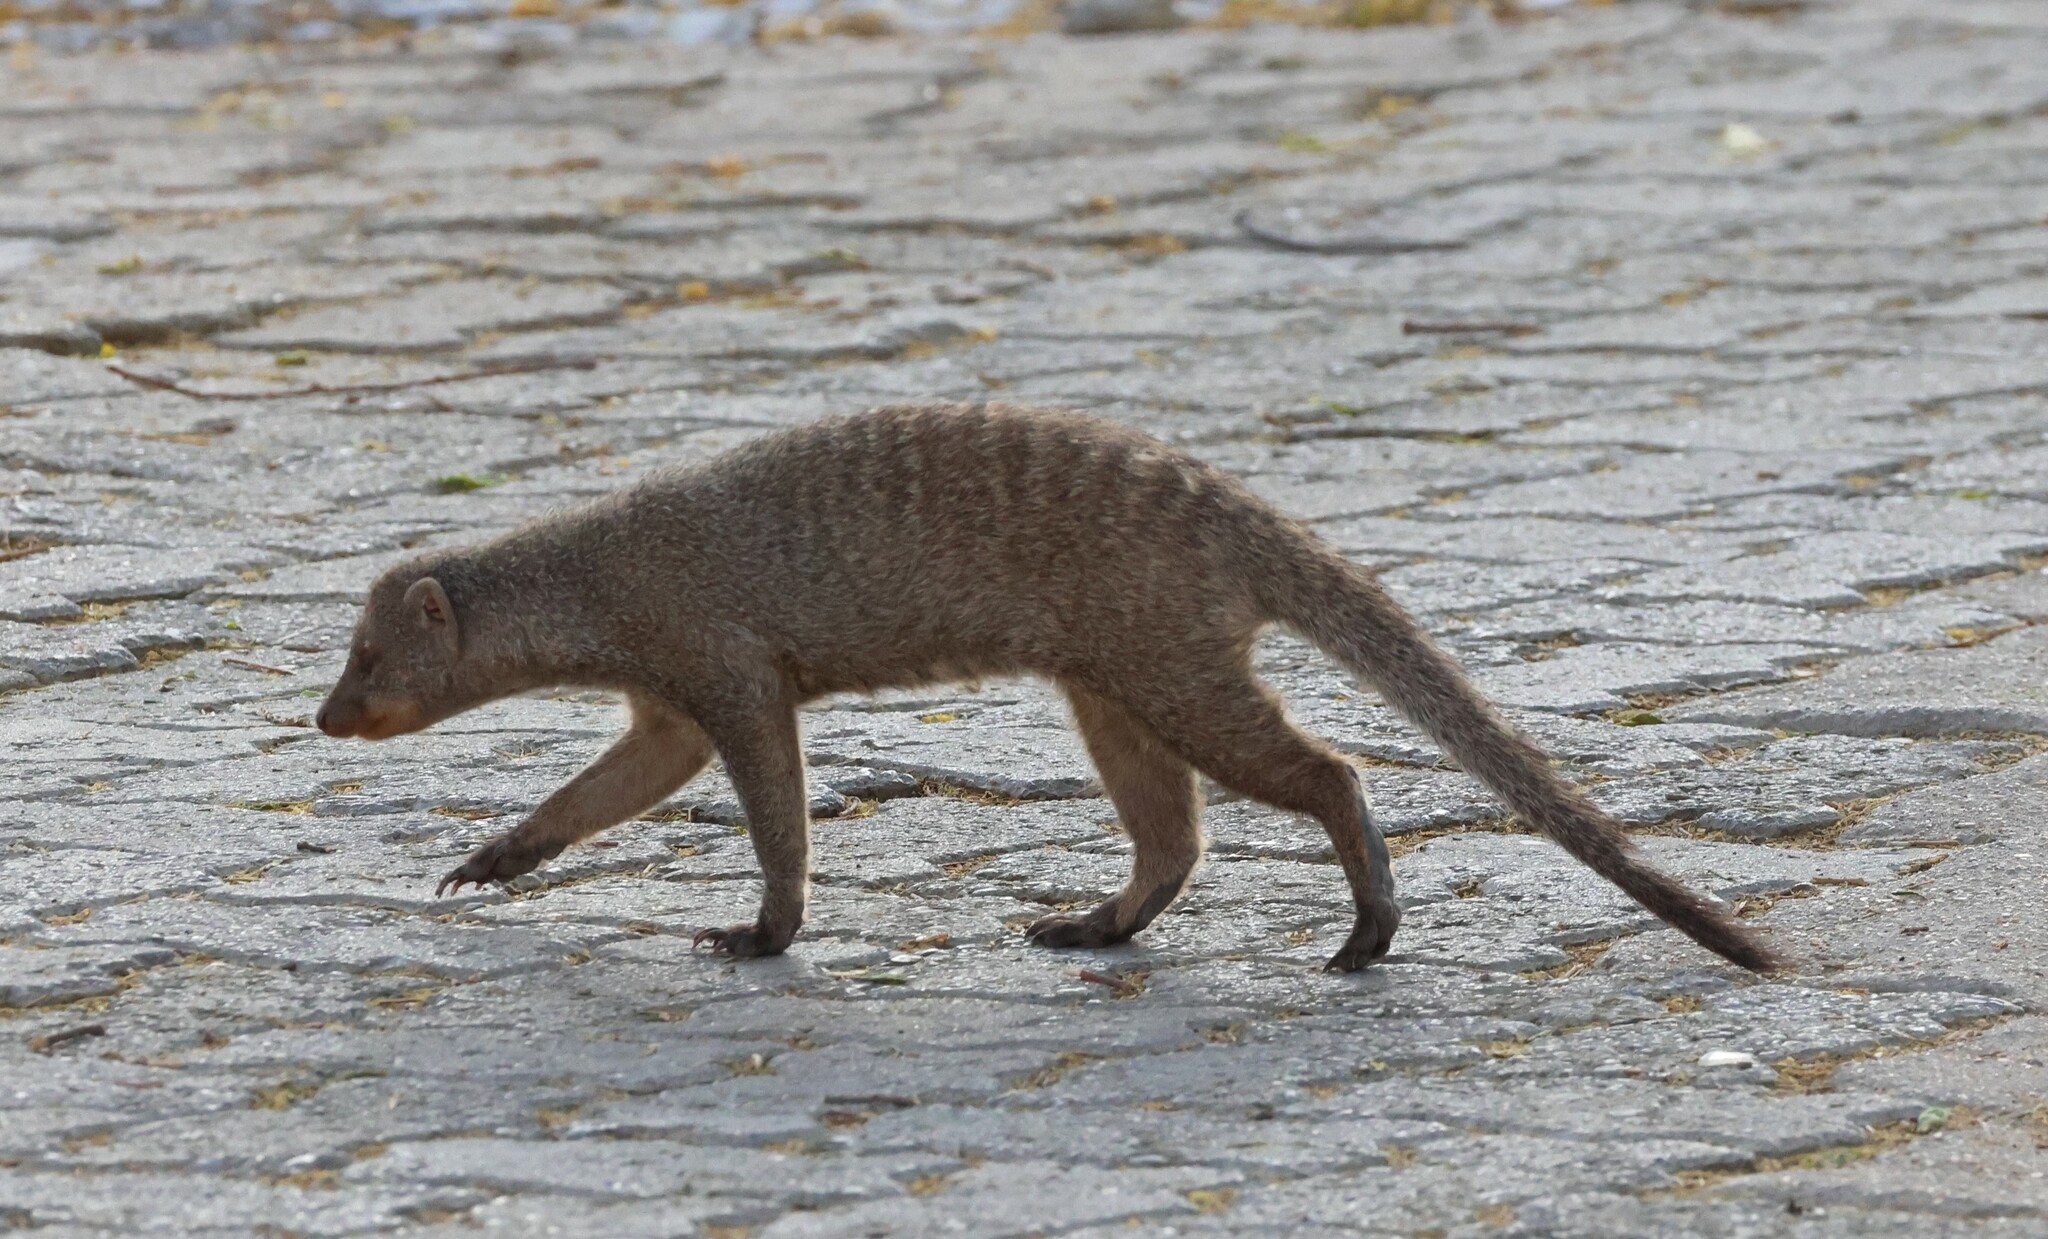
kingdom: Animalia
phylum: Chordata
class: Mammalia
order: Carnivora
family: Herpestidae
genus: Mungos
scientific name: Mungos mungo
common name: Banded mongoose
